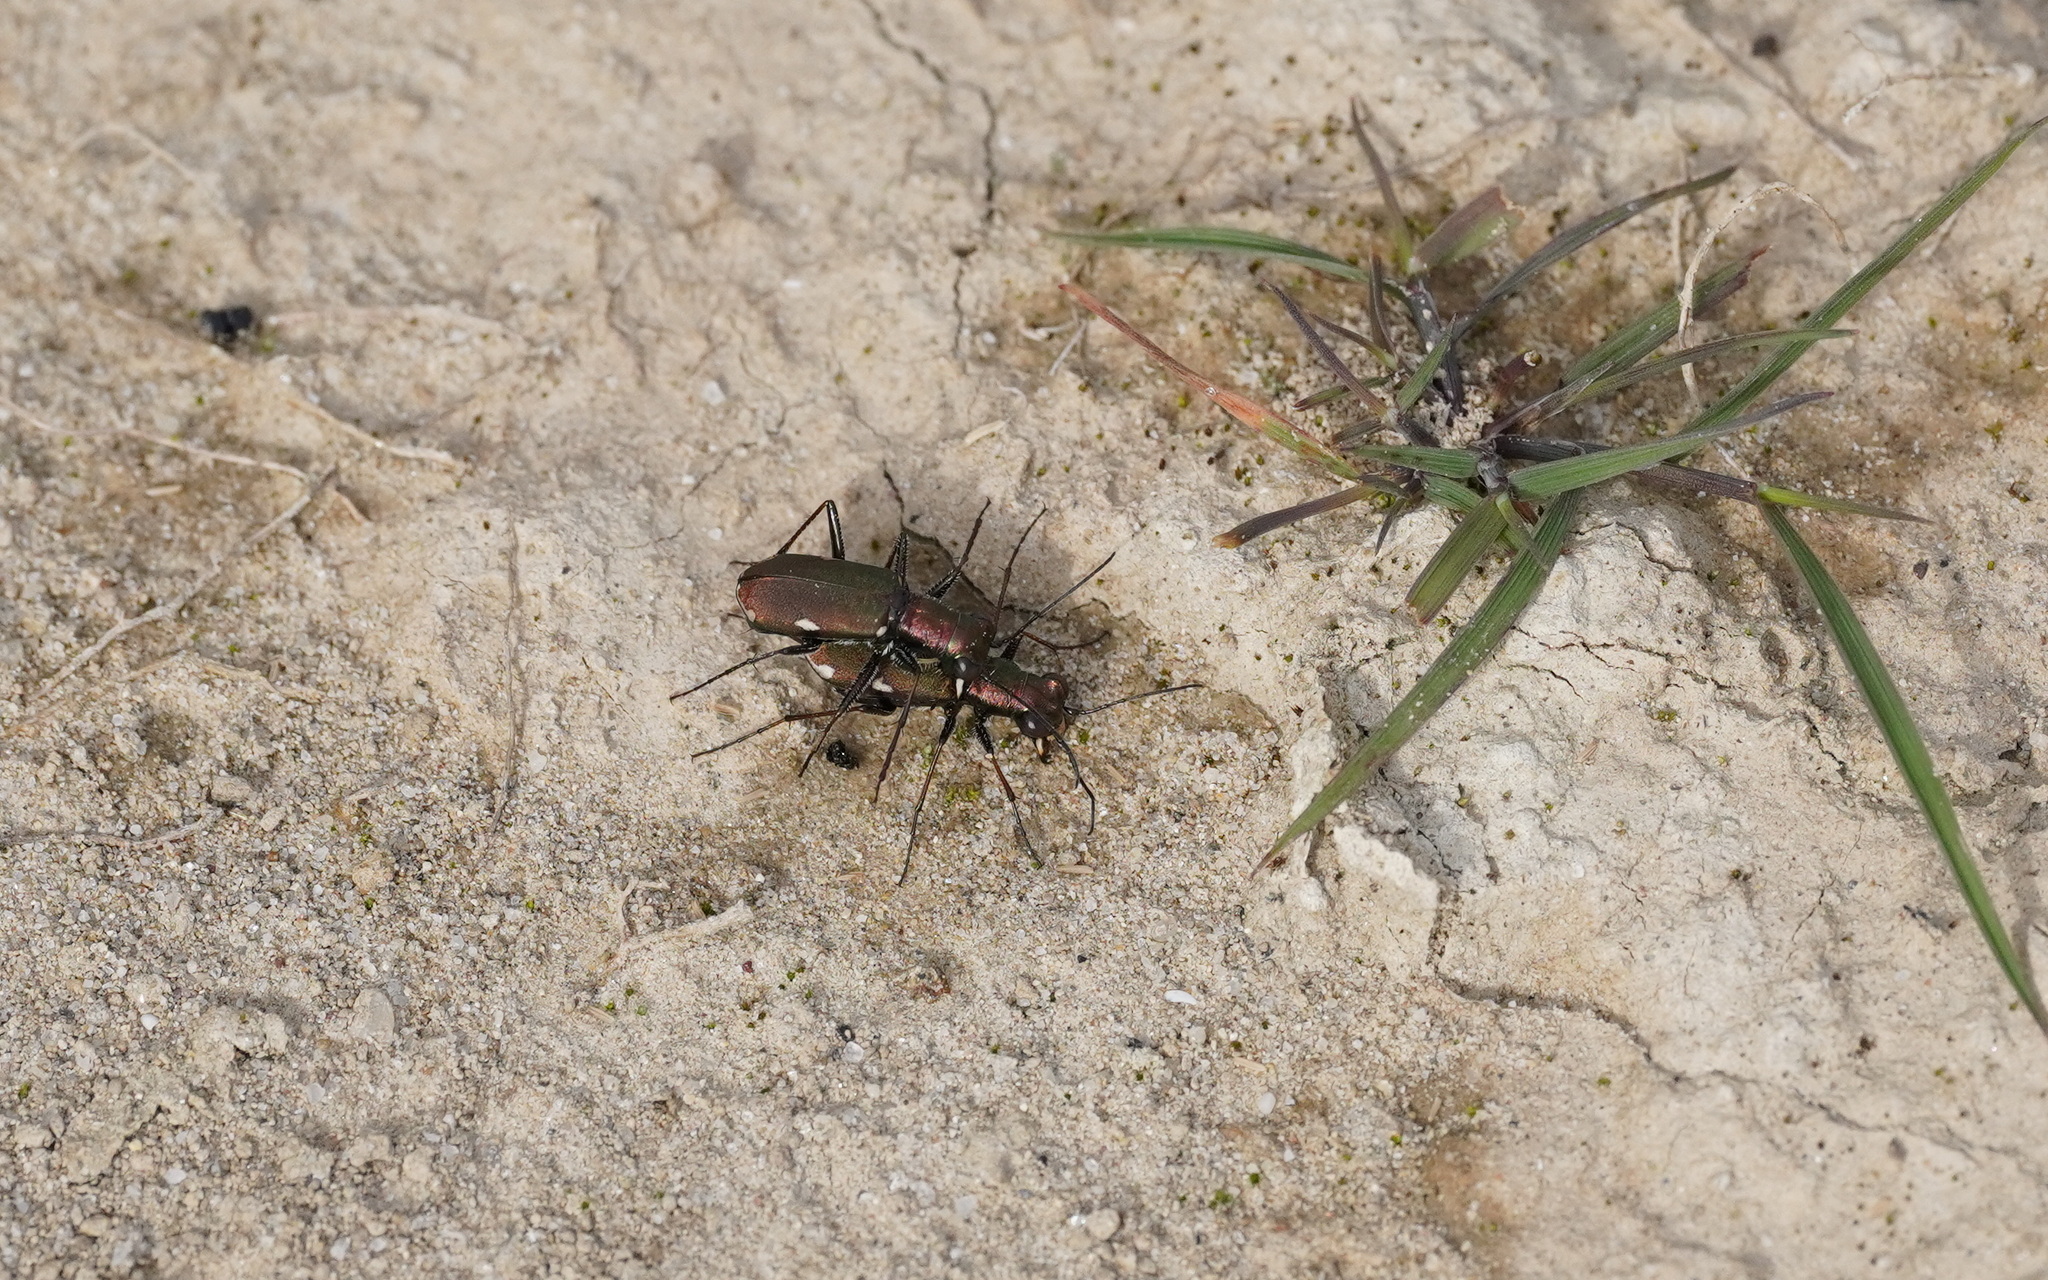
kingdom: Animalia
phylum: Arthropoda
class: Insecta
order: Coleoptera
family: Carabidae
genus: Cylindera
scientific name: Cylindera germanica
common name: Cliff tiger beetle
